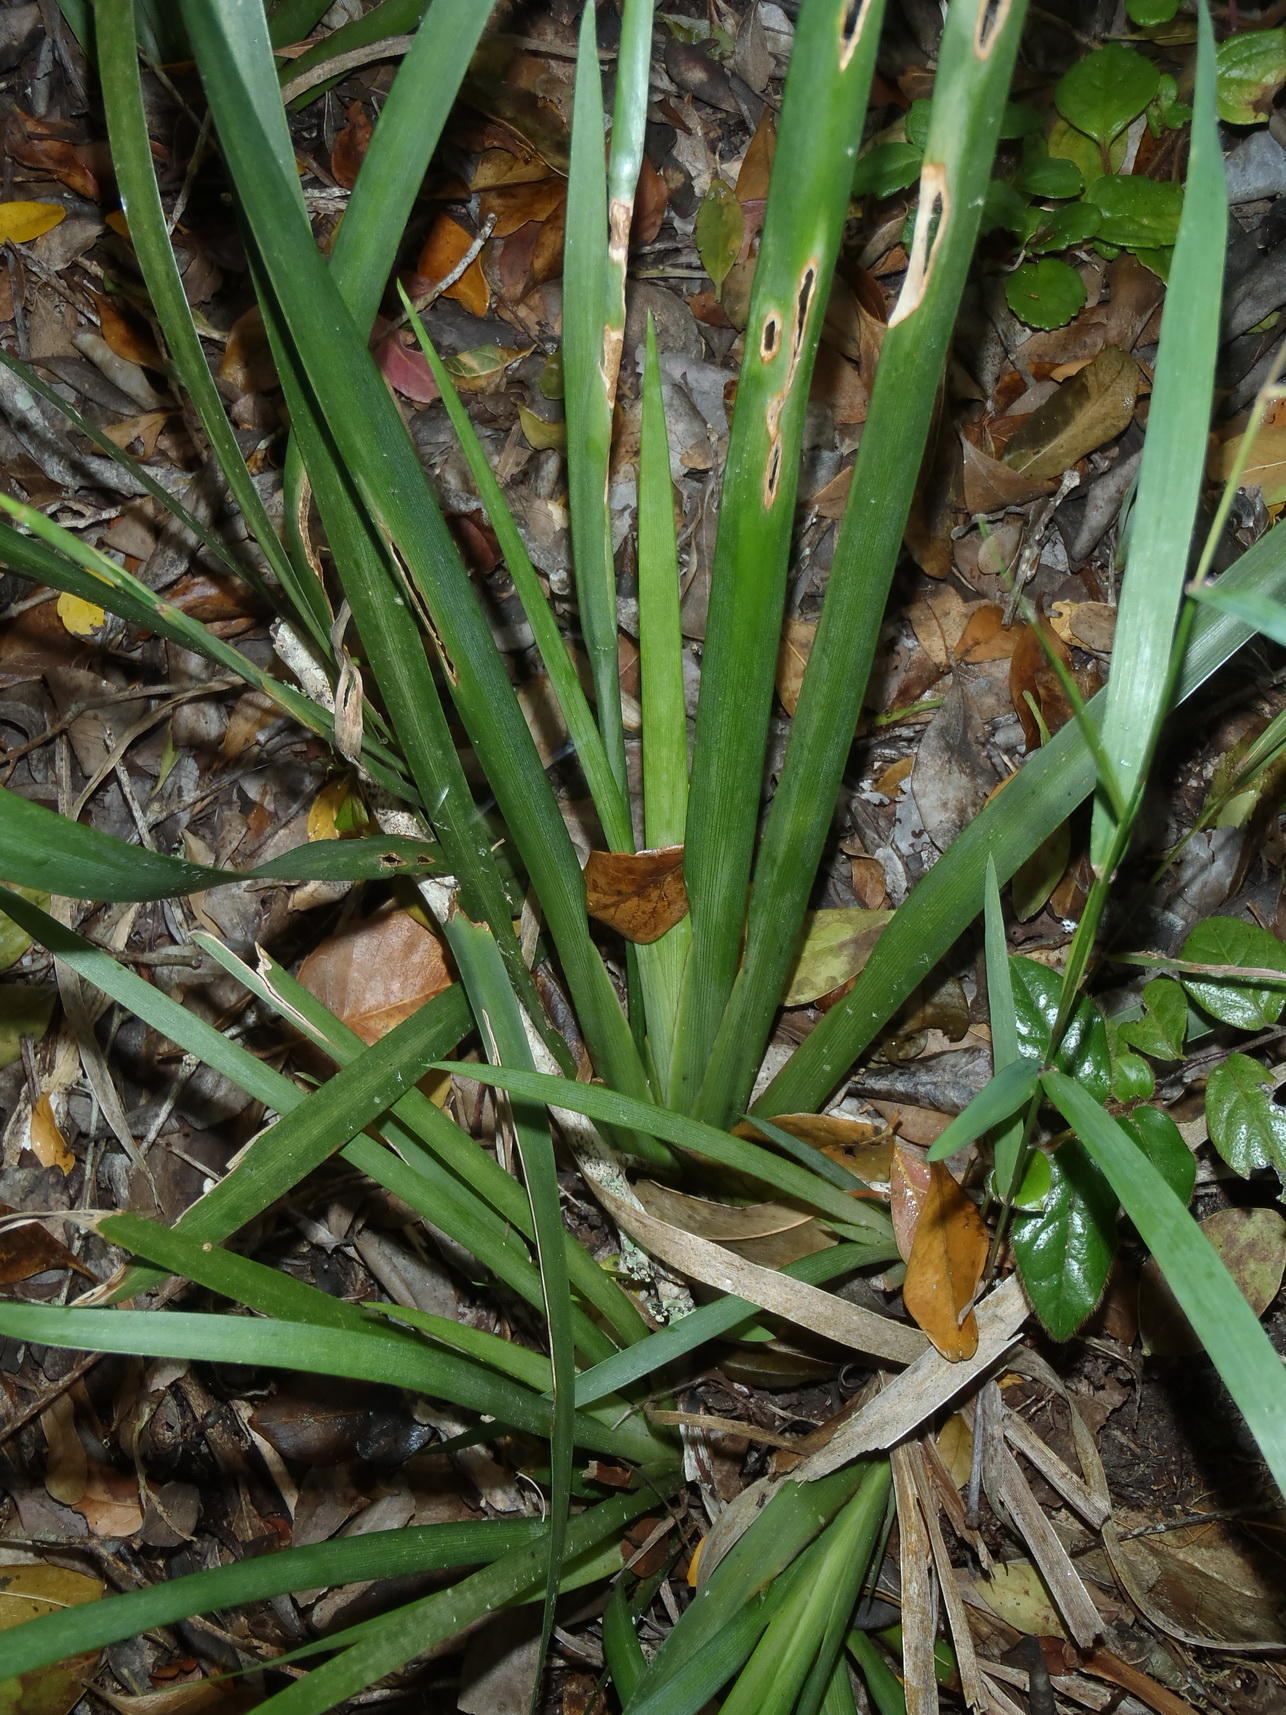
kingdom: Plantae
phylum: Tracheophyta
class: Liliopsida
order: Asparagales
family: Iridaceae
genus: Dietes
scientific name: Dietes iridioides
